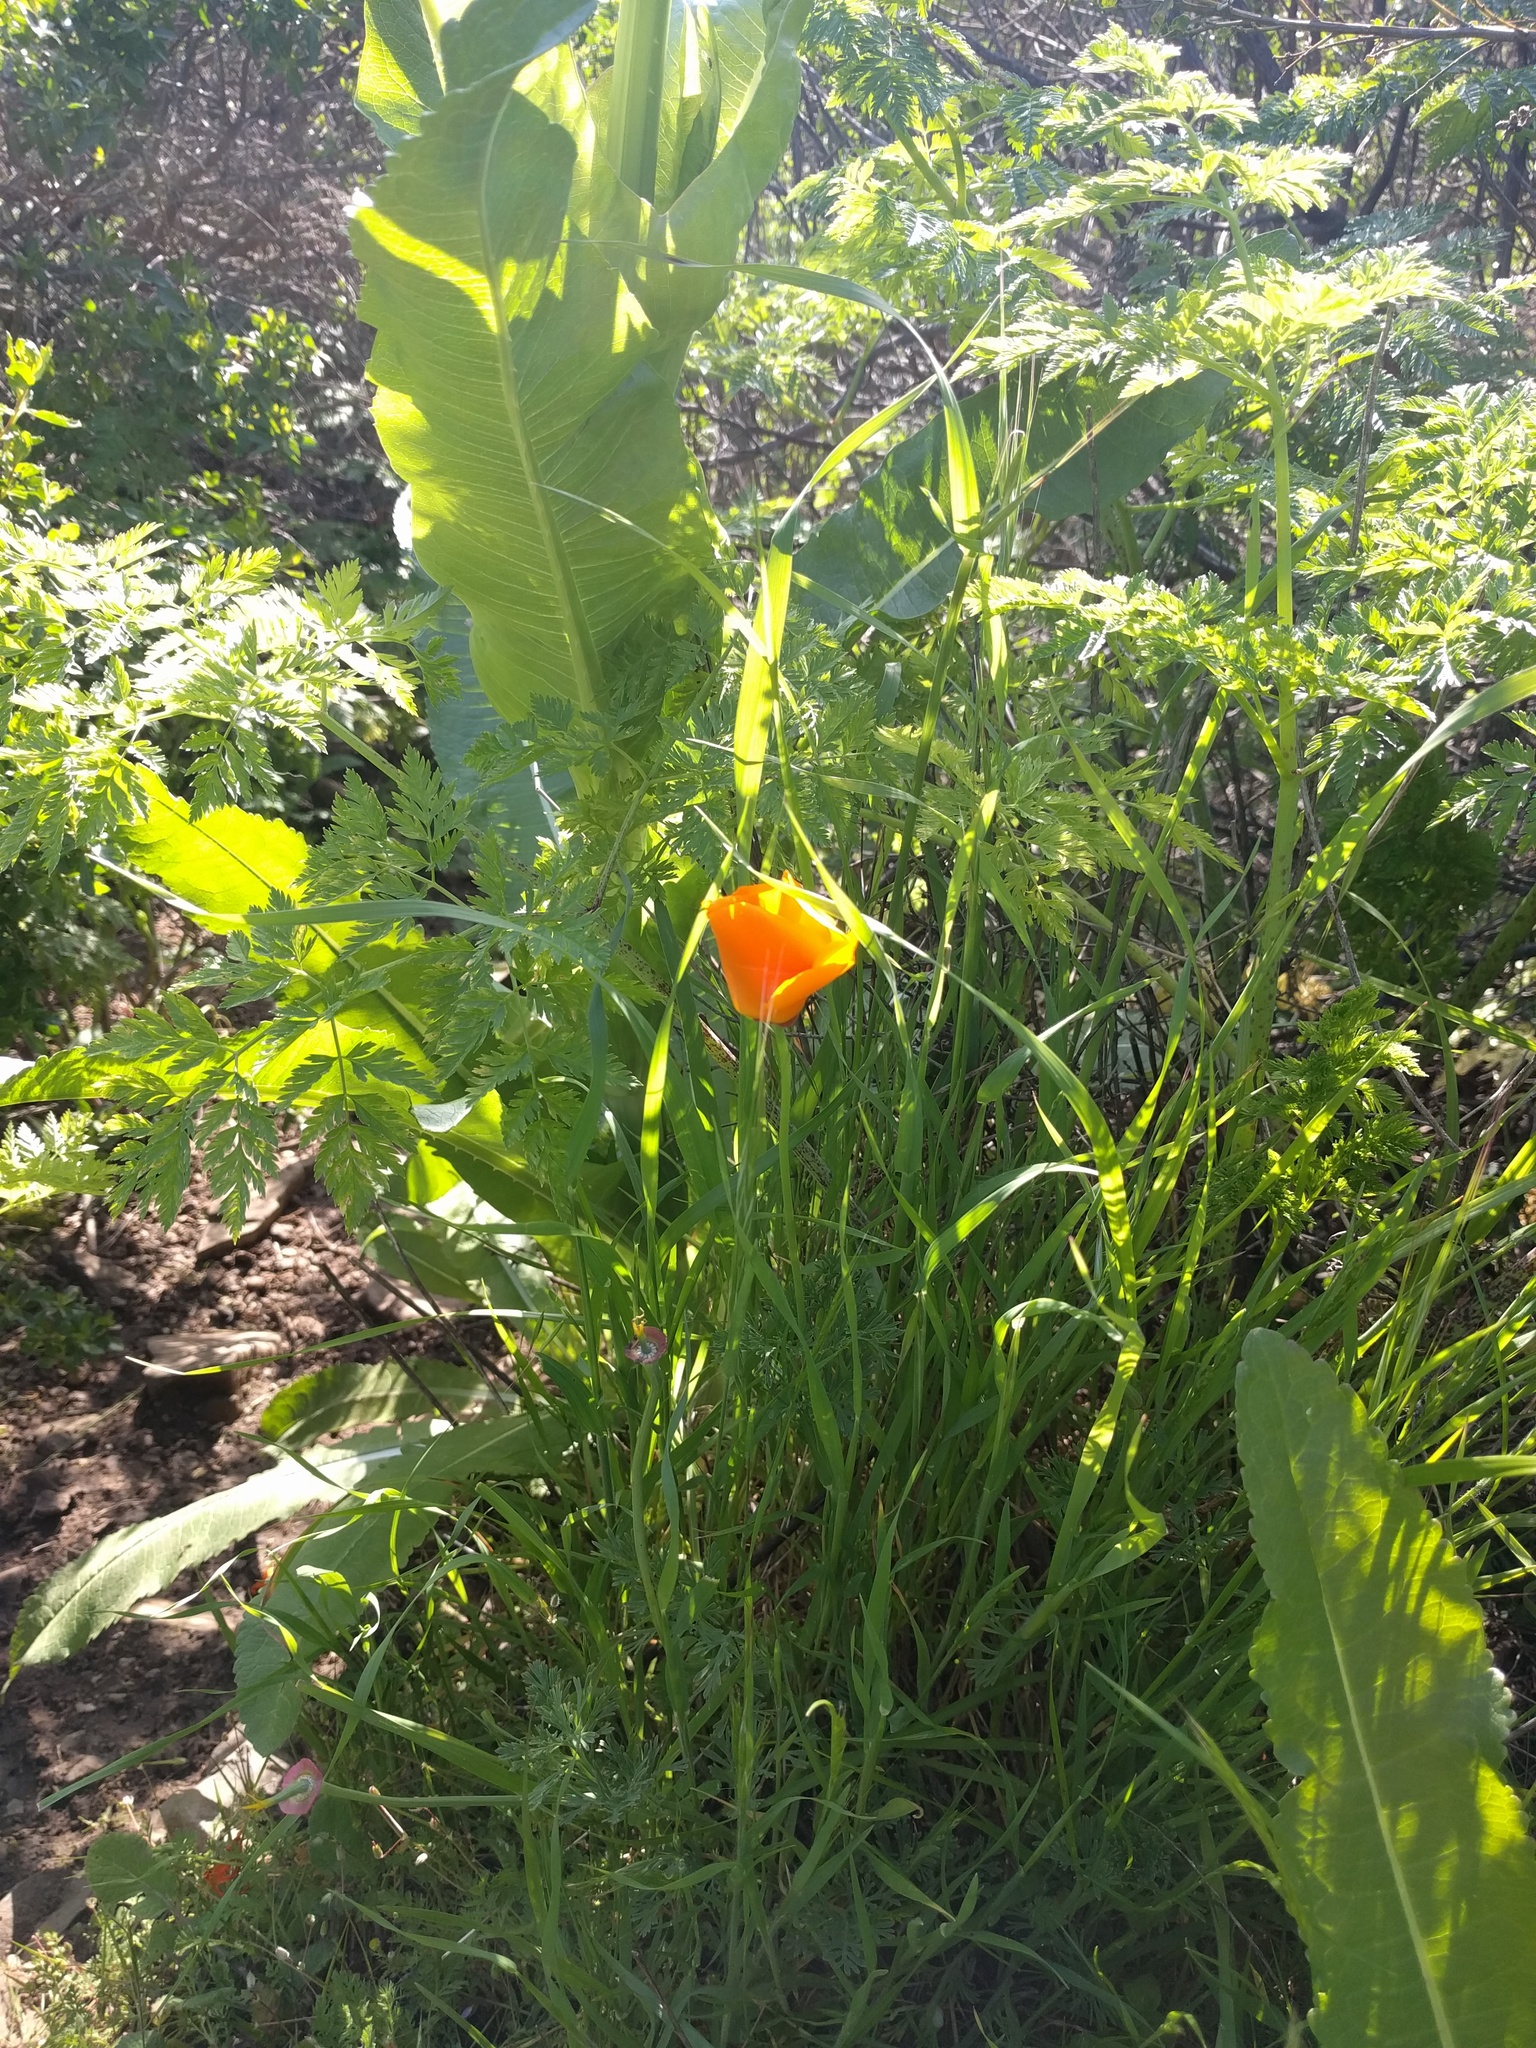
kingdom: Plantae
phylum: Tracheophyta
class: Magnoliopsida
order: Ranunculales
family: Papaveraceae
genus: Eschscholzia
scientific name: Eschscholzia californica
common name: California poppy
